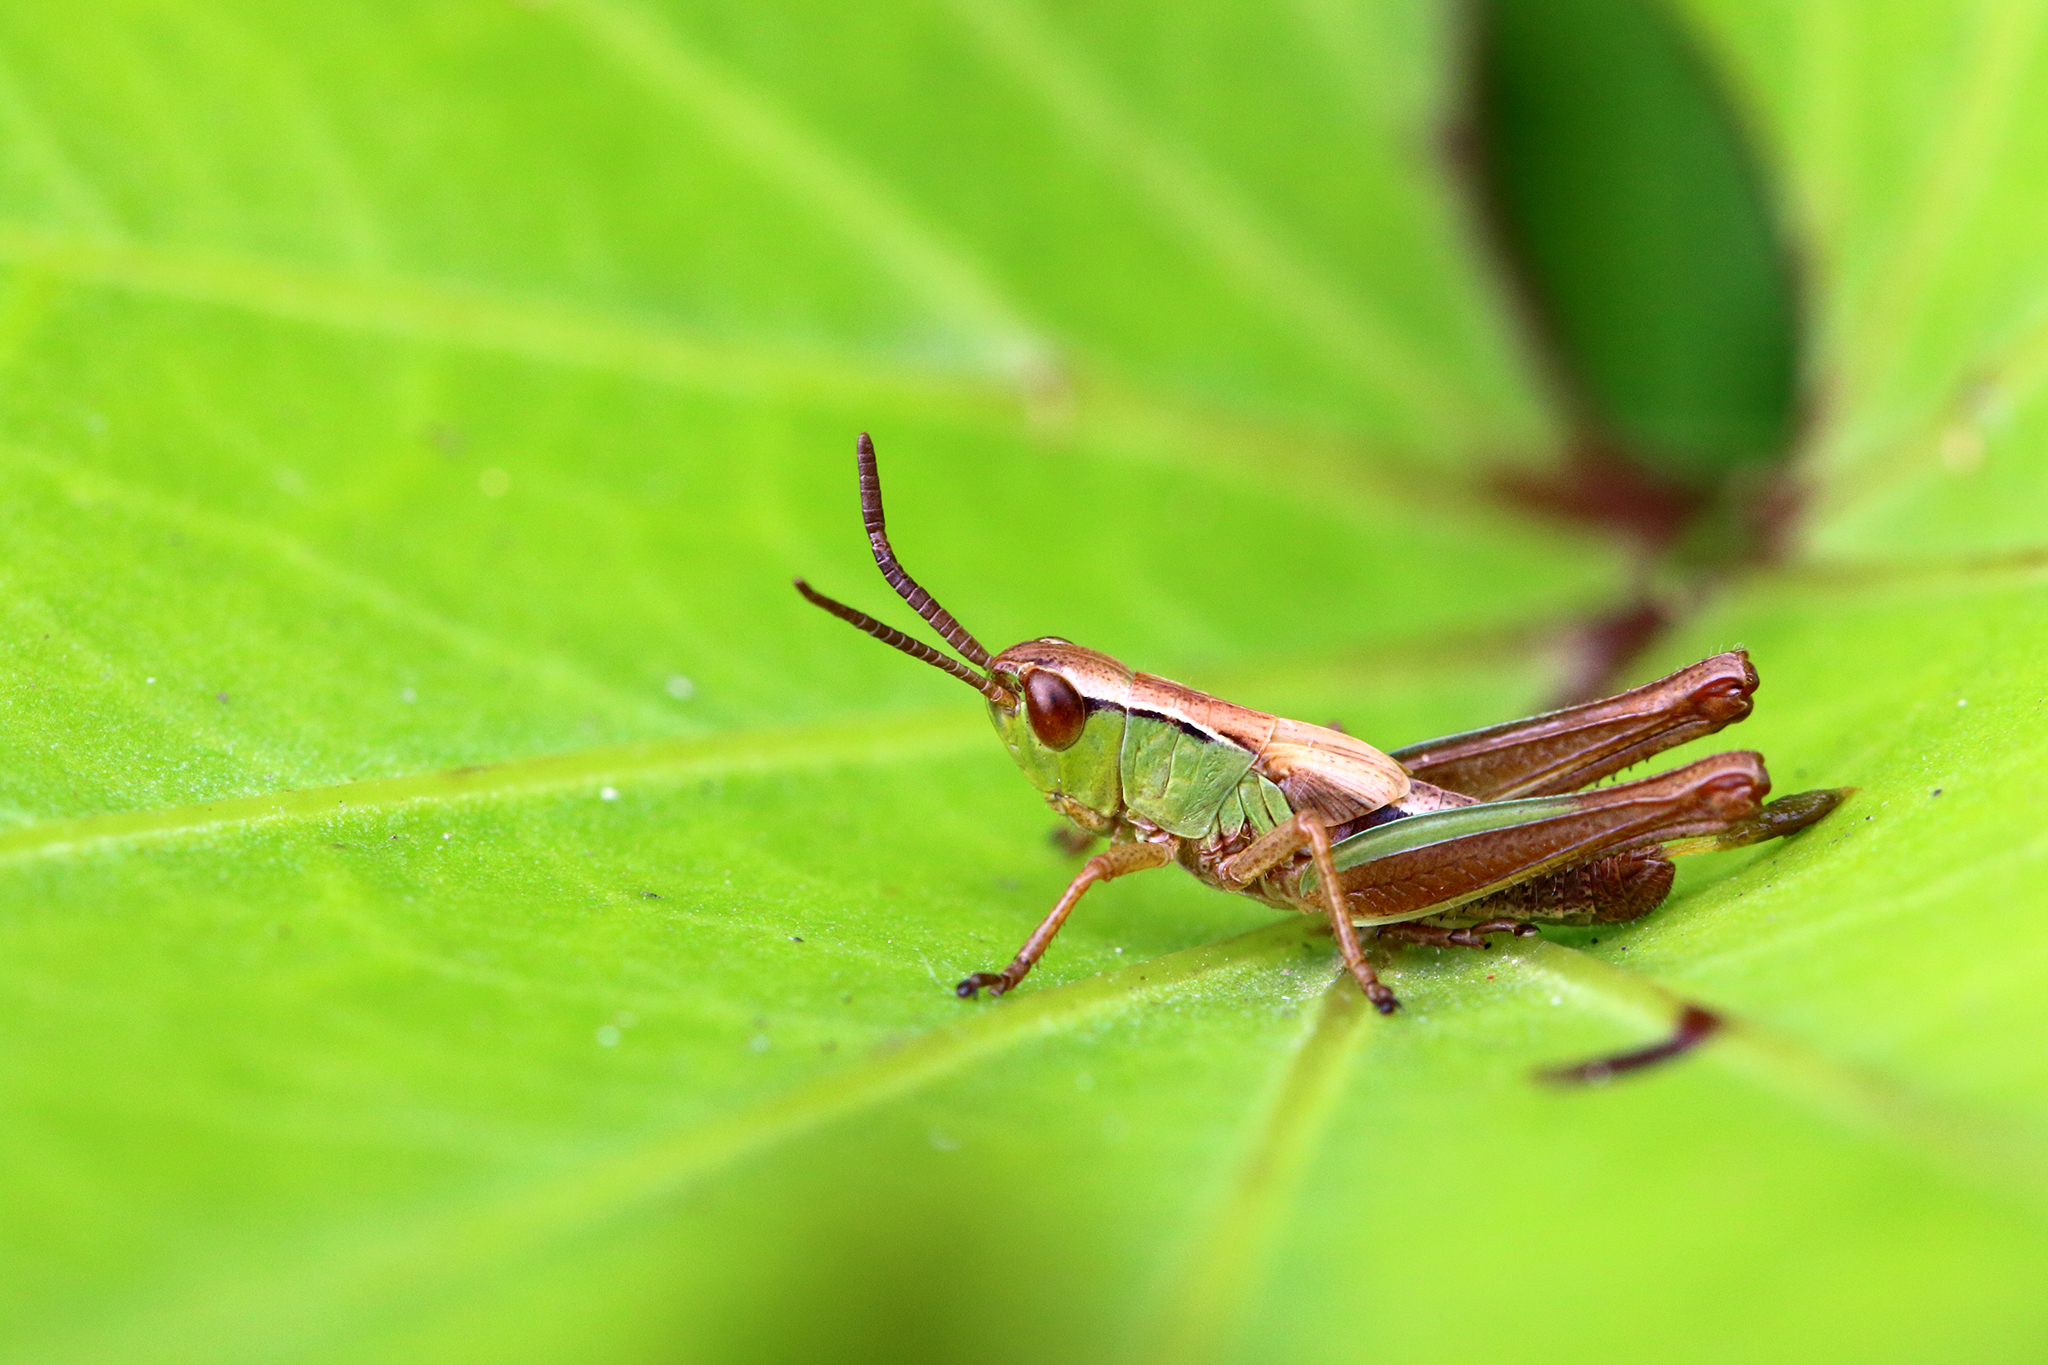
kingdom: Animalia
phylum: Arthropoda
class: Insecta
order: Orthoptera
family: Acrididae
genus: Pseudochorthippus
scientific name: Pseudochorthippus parallelus
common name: Meadow grasshopper
